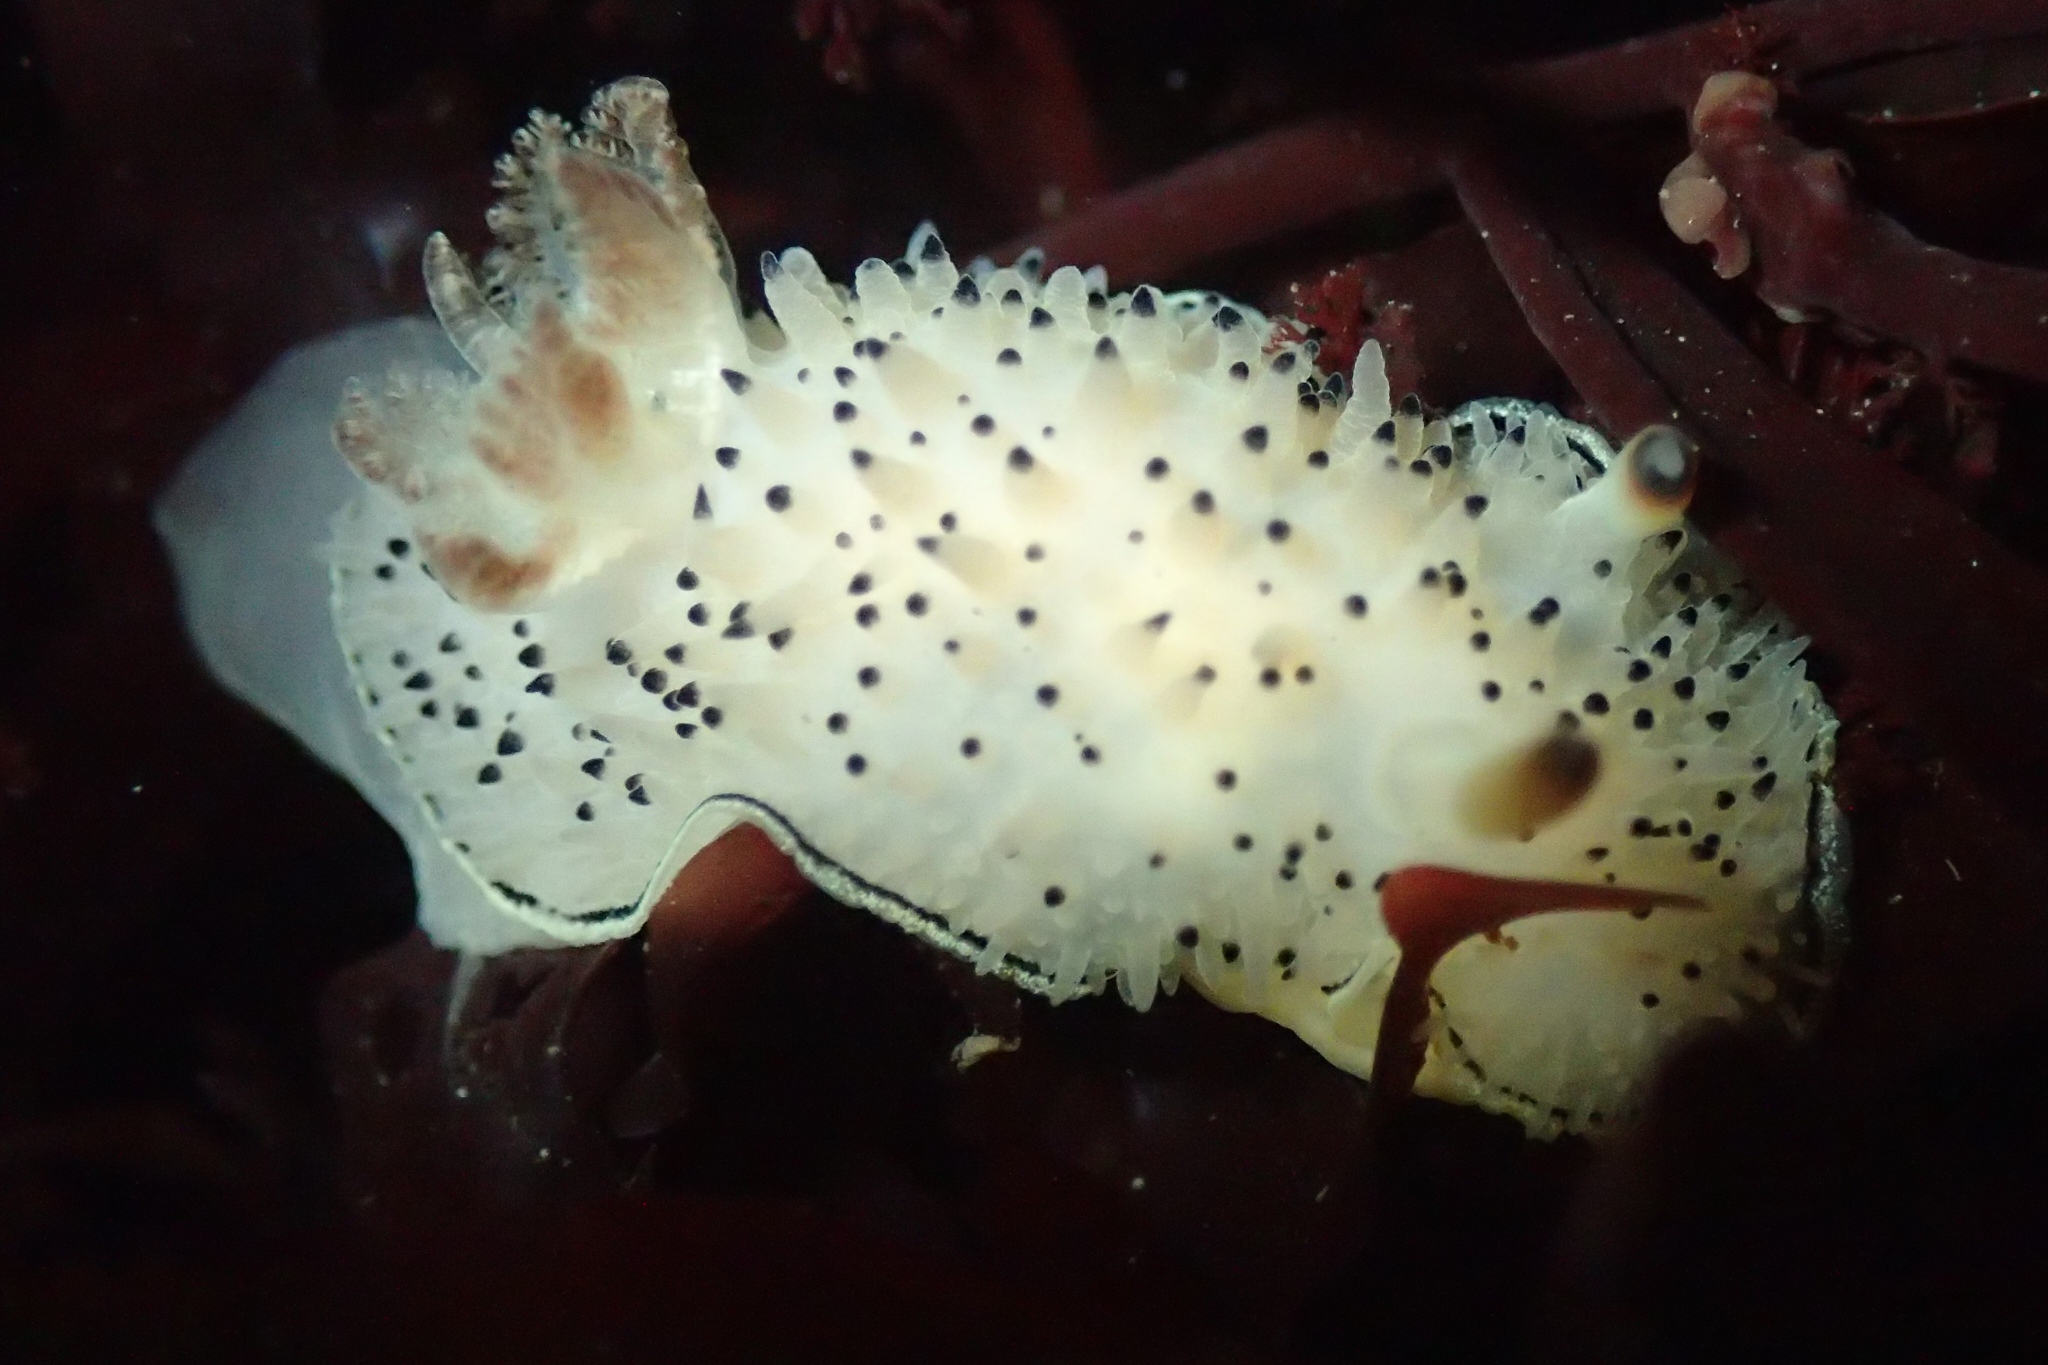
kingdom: Animalia
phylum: Mollusca
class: Gastropoda
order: Nudibranchia
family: Onchidorididae
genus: Acanthodoris
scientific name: Acanthodoris rhodoceras
